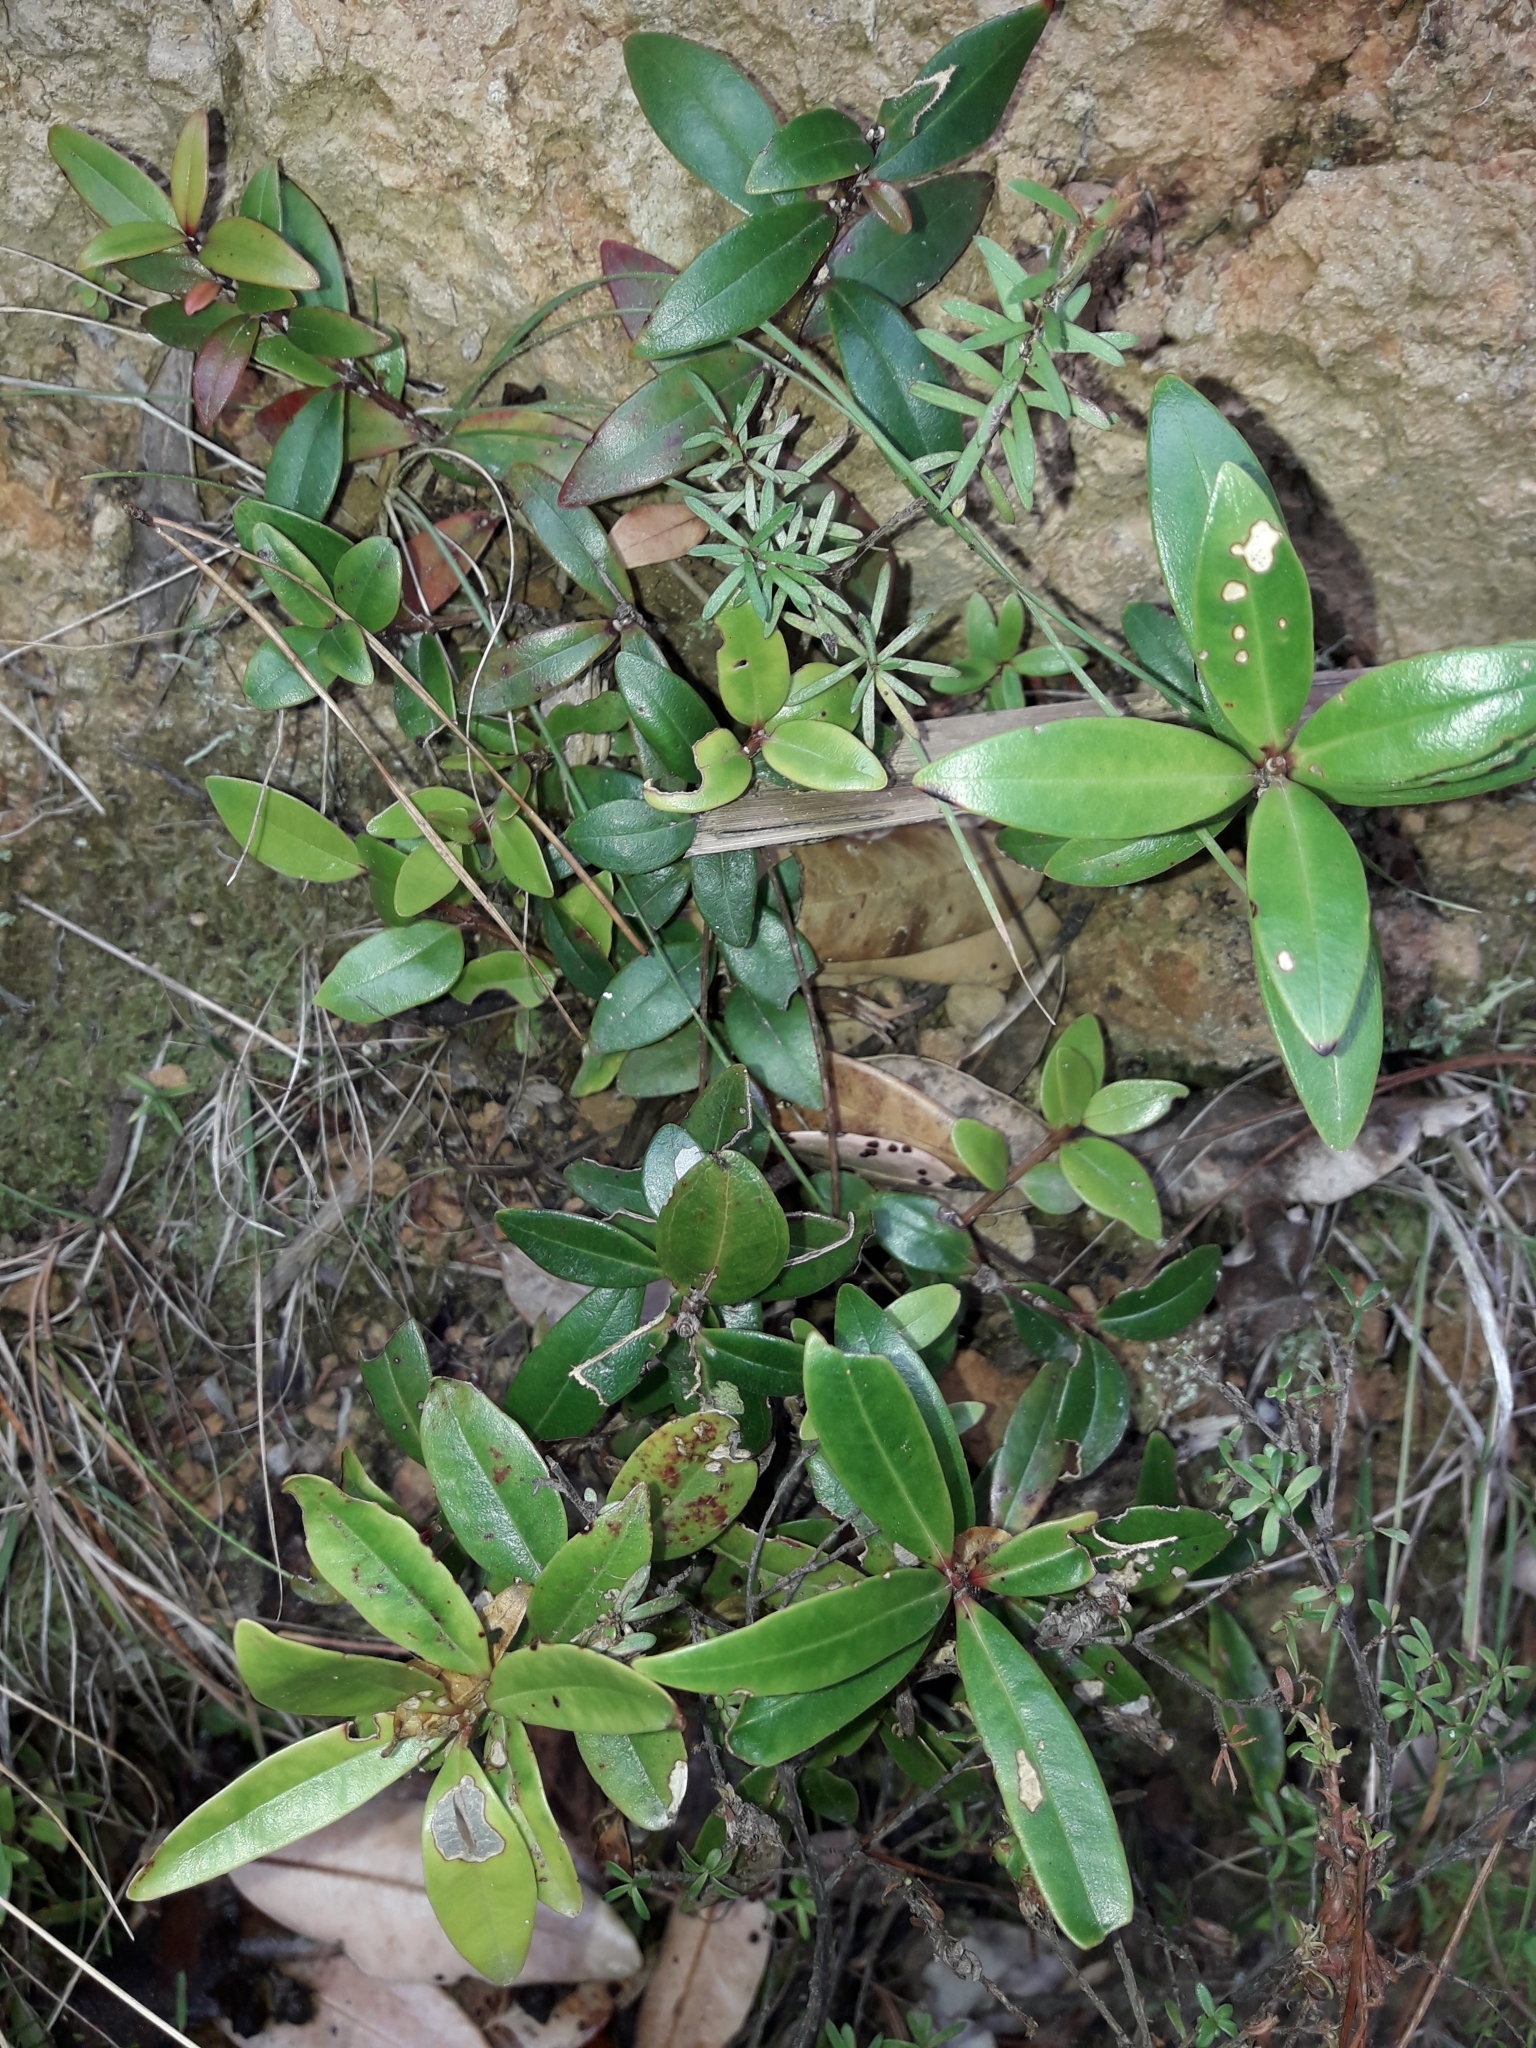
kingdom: Plantae
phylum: Tracheophyta
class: Magnoliopsida
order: Myrtales
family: Myrtaceae
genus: Metrosideros
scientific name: Metrosideros excelsa
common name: New zealand christmastree
